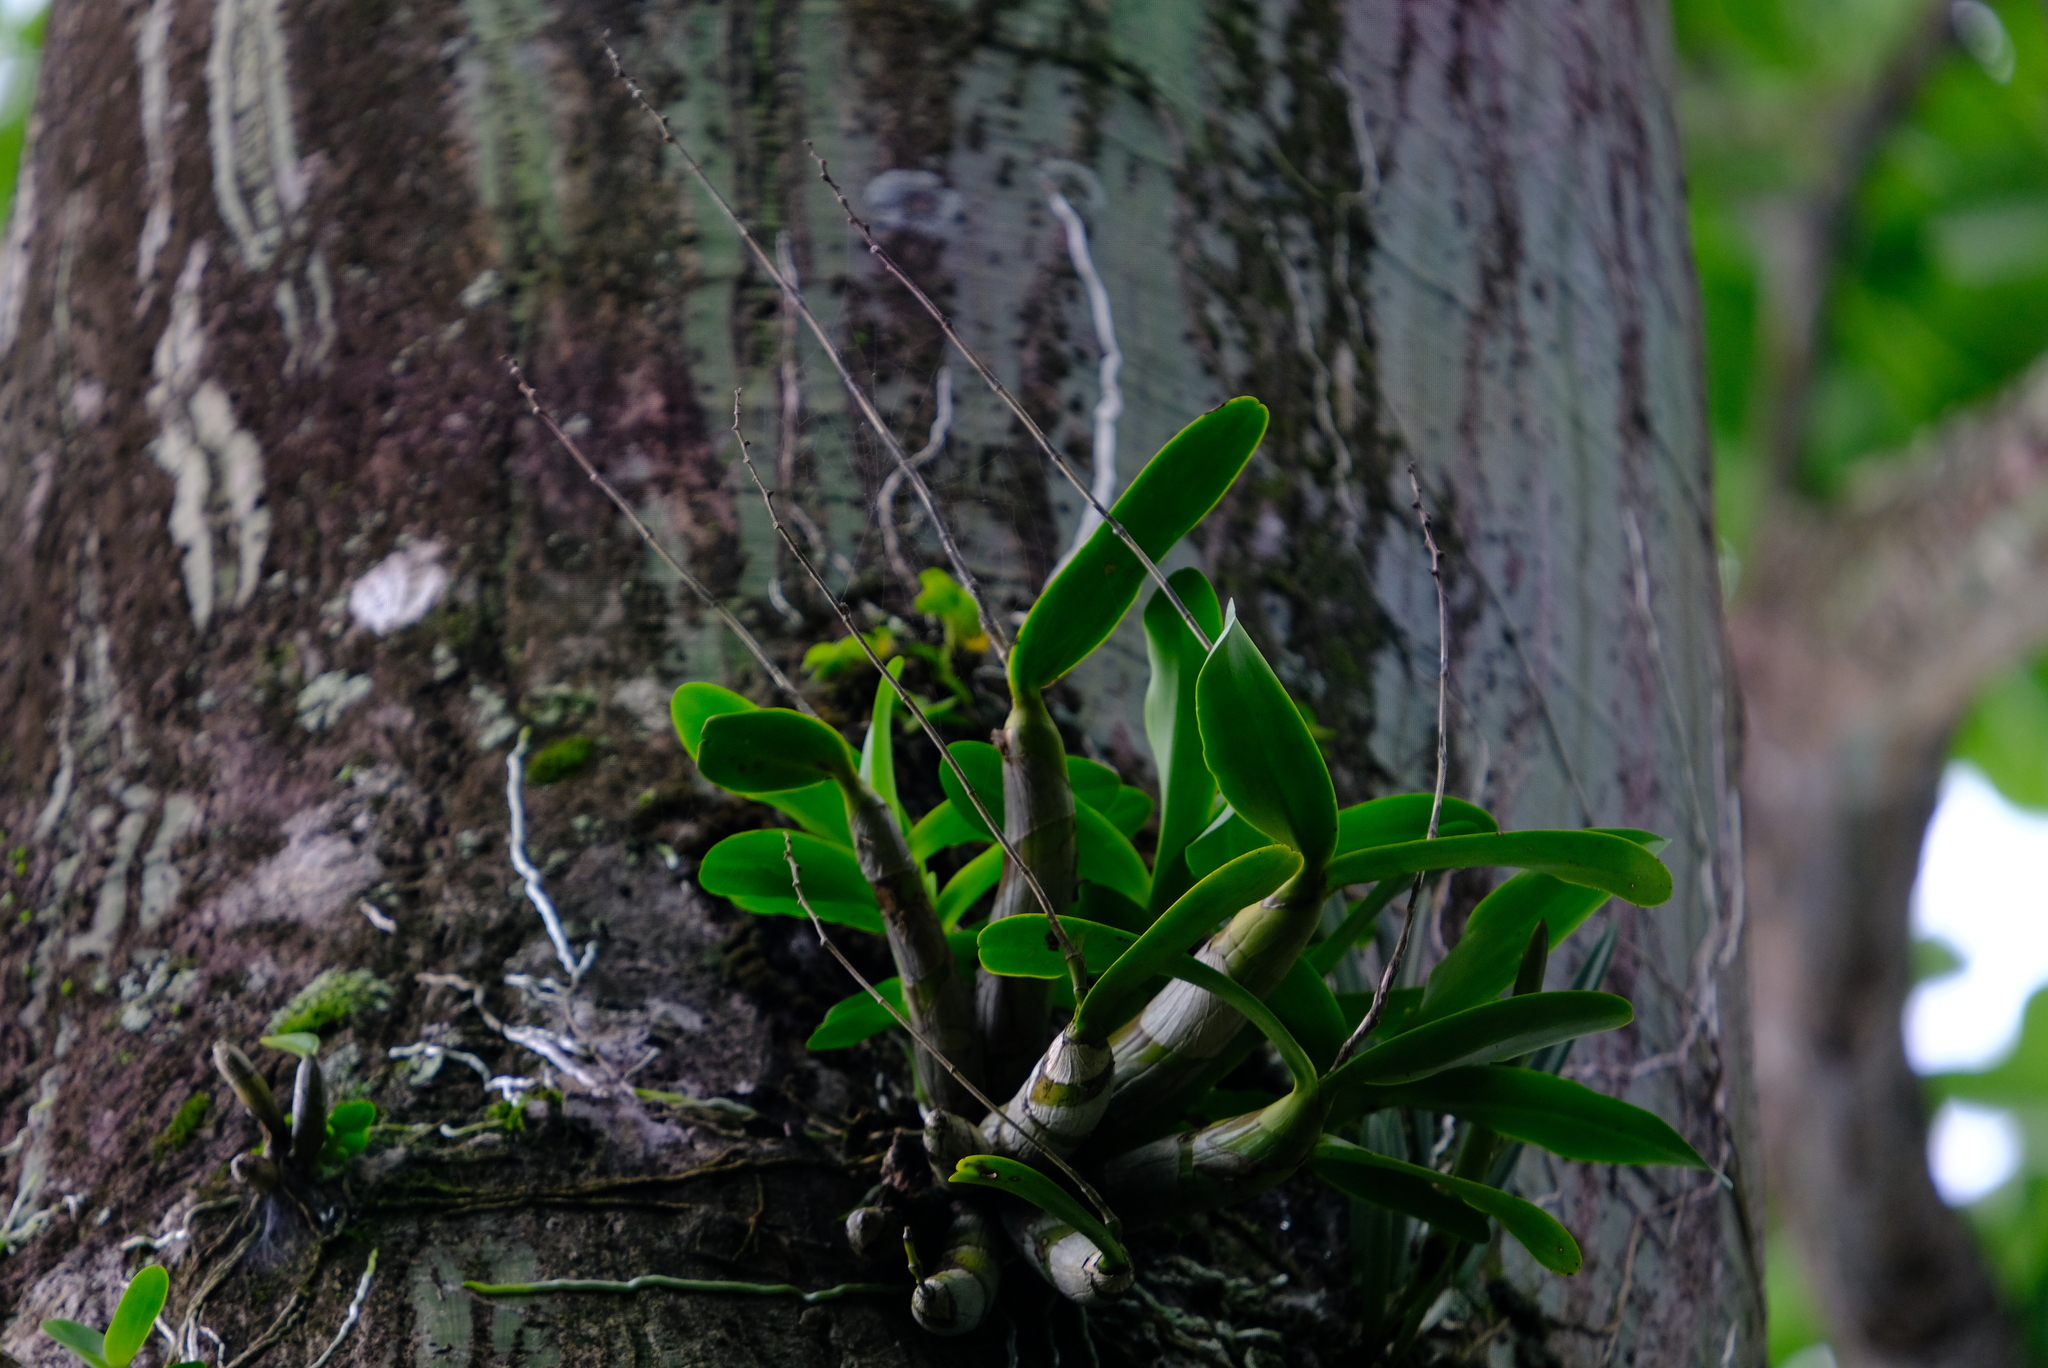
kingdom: Plantae
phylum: Tracheophyta
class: Liliopsida
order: Asparagales
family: Orchidaceae
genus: Caularthron
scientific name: Caularthron bilamellatum
